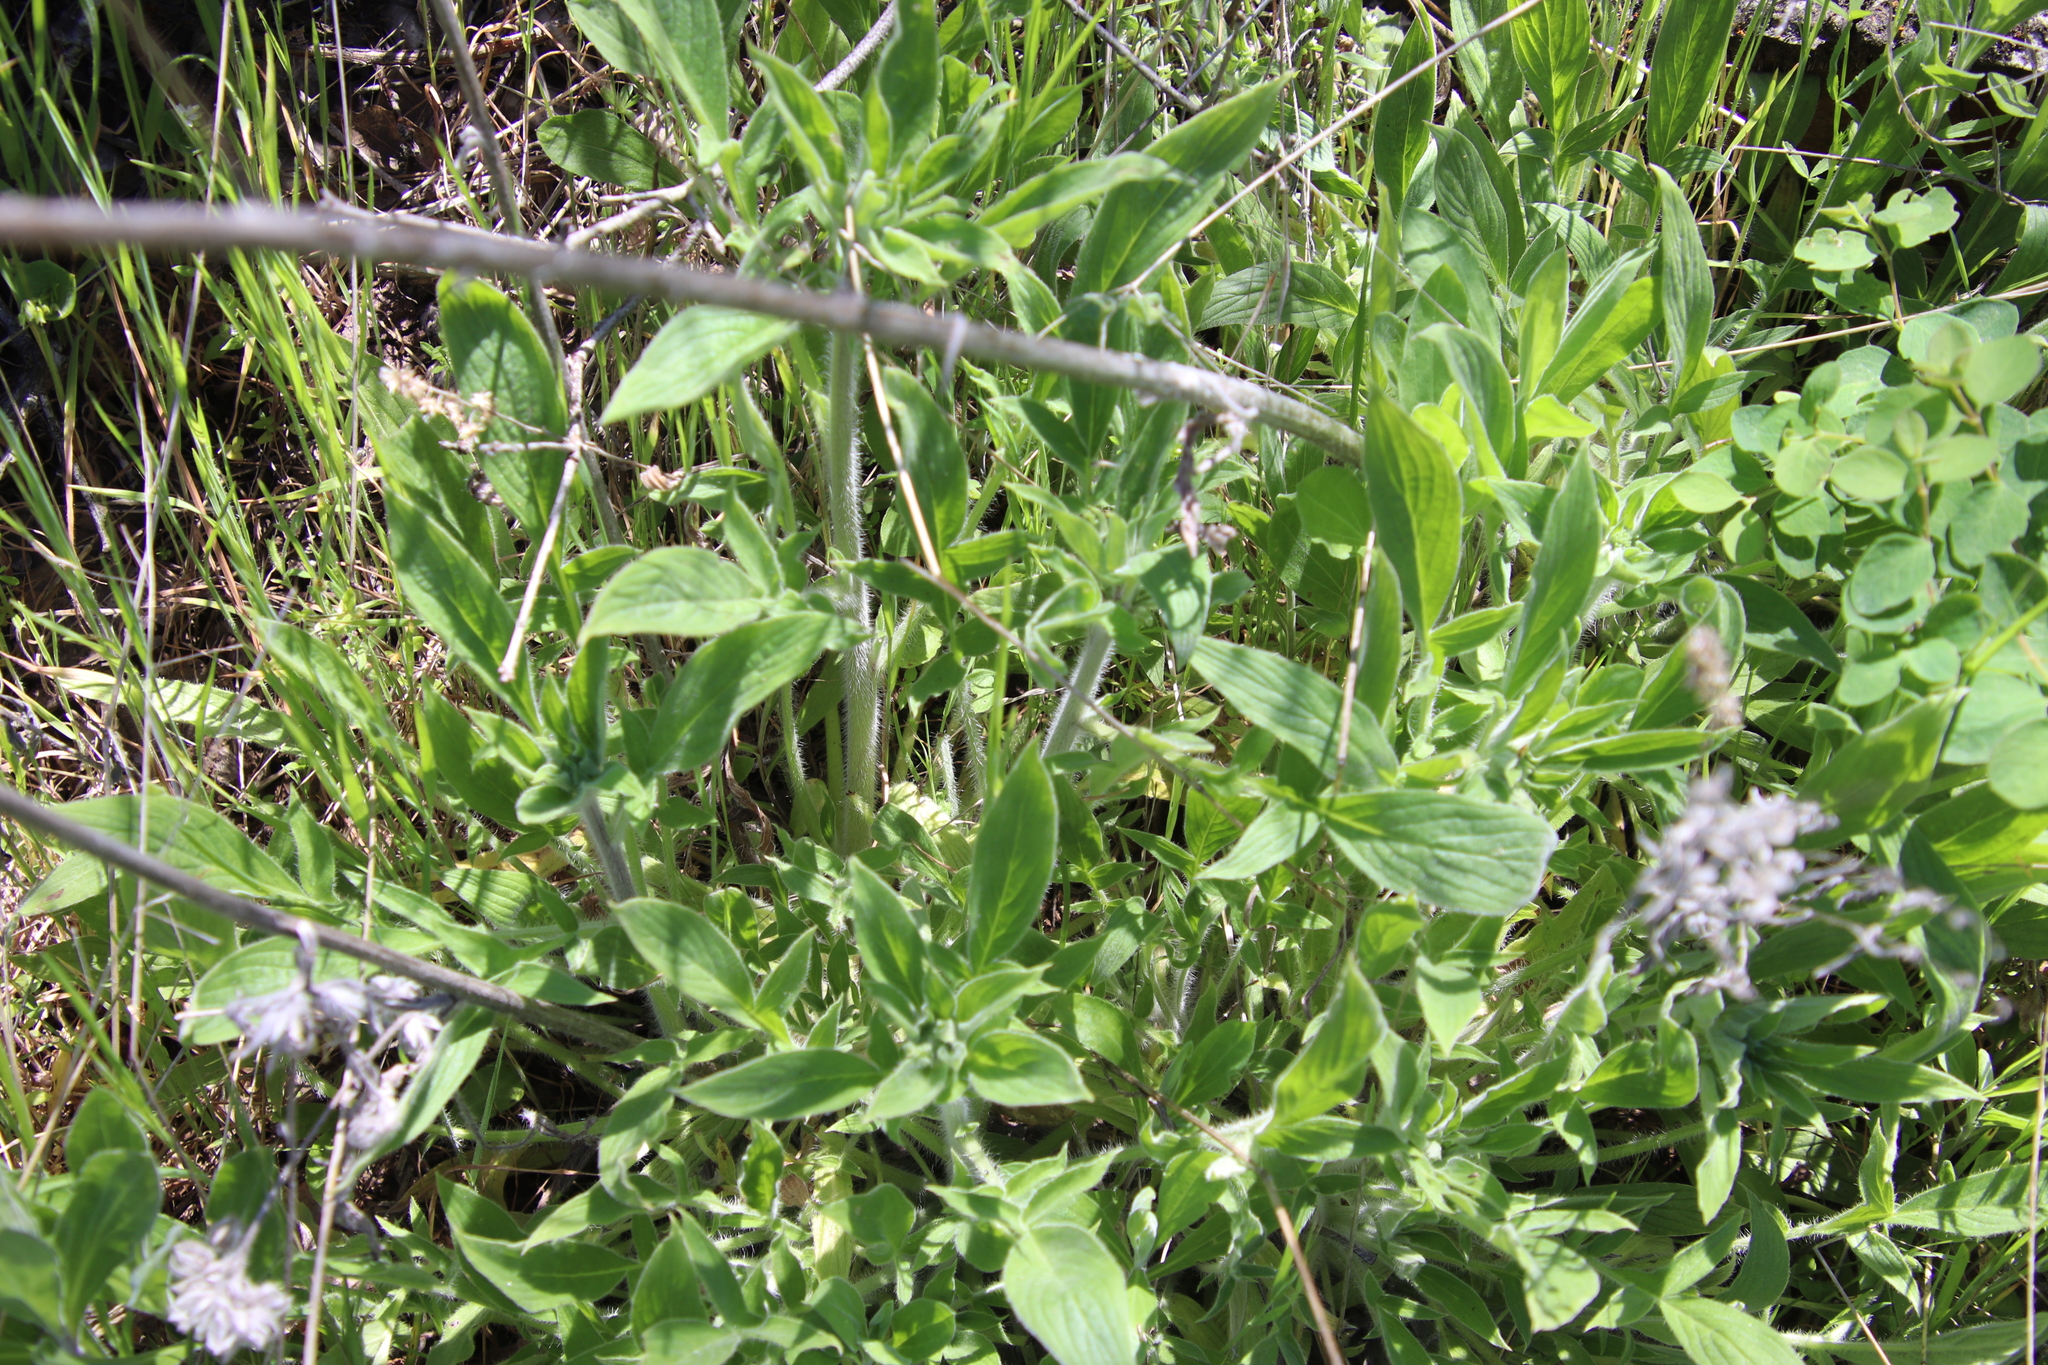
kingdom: Plantae
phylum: Tracheophyta
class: Magnoliopsida
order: Boraginales
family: Hydrophyllaceae
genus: Phacelia
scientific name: Phacelia imbricata
